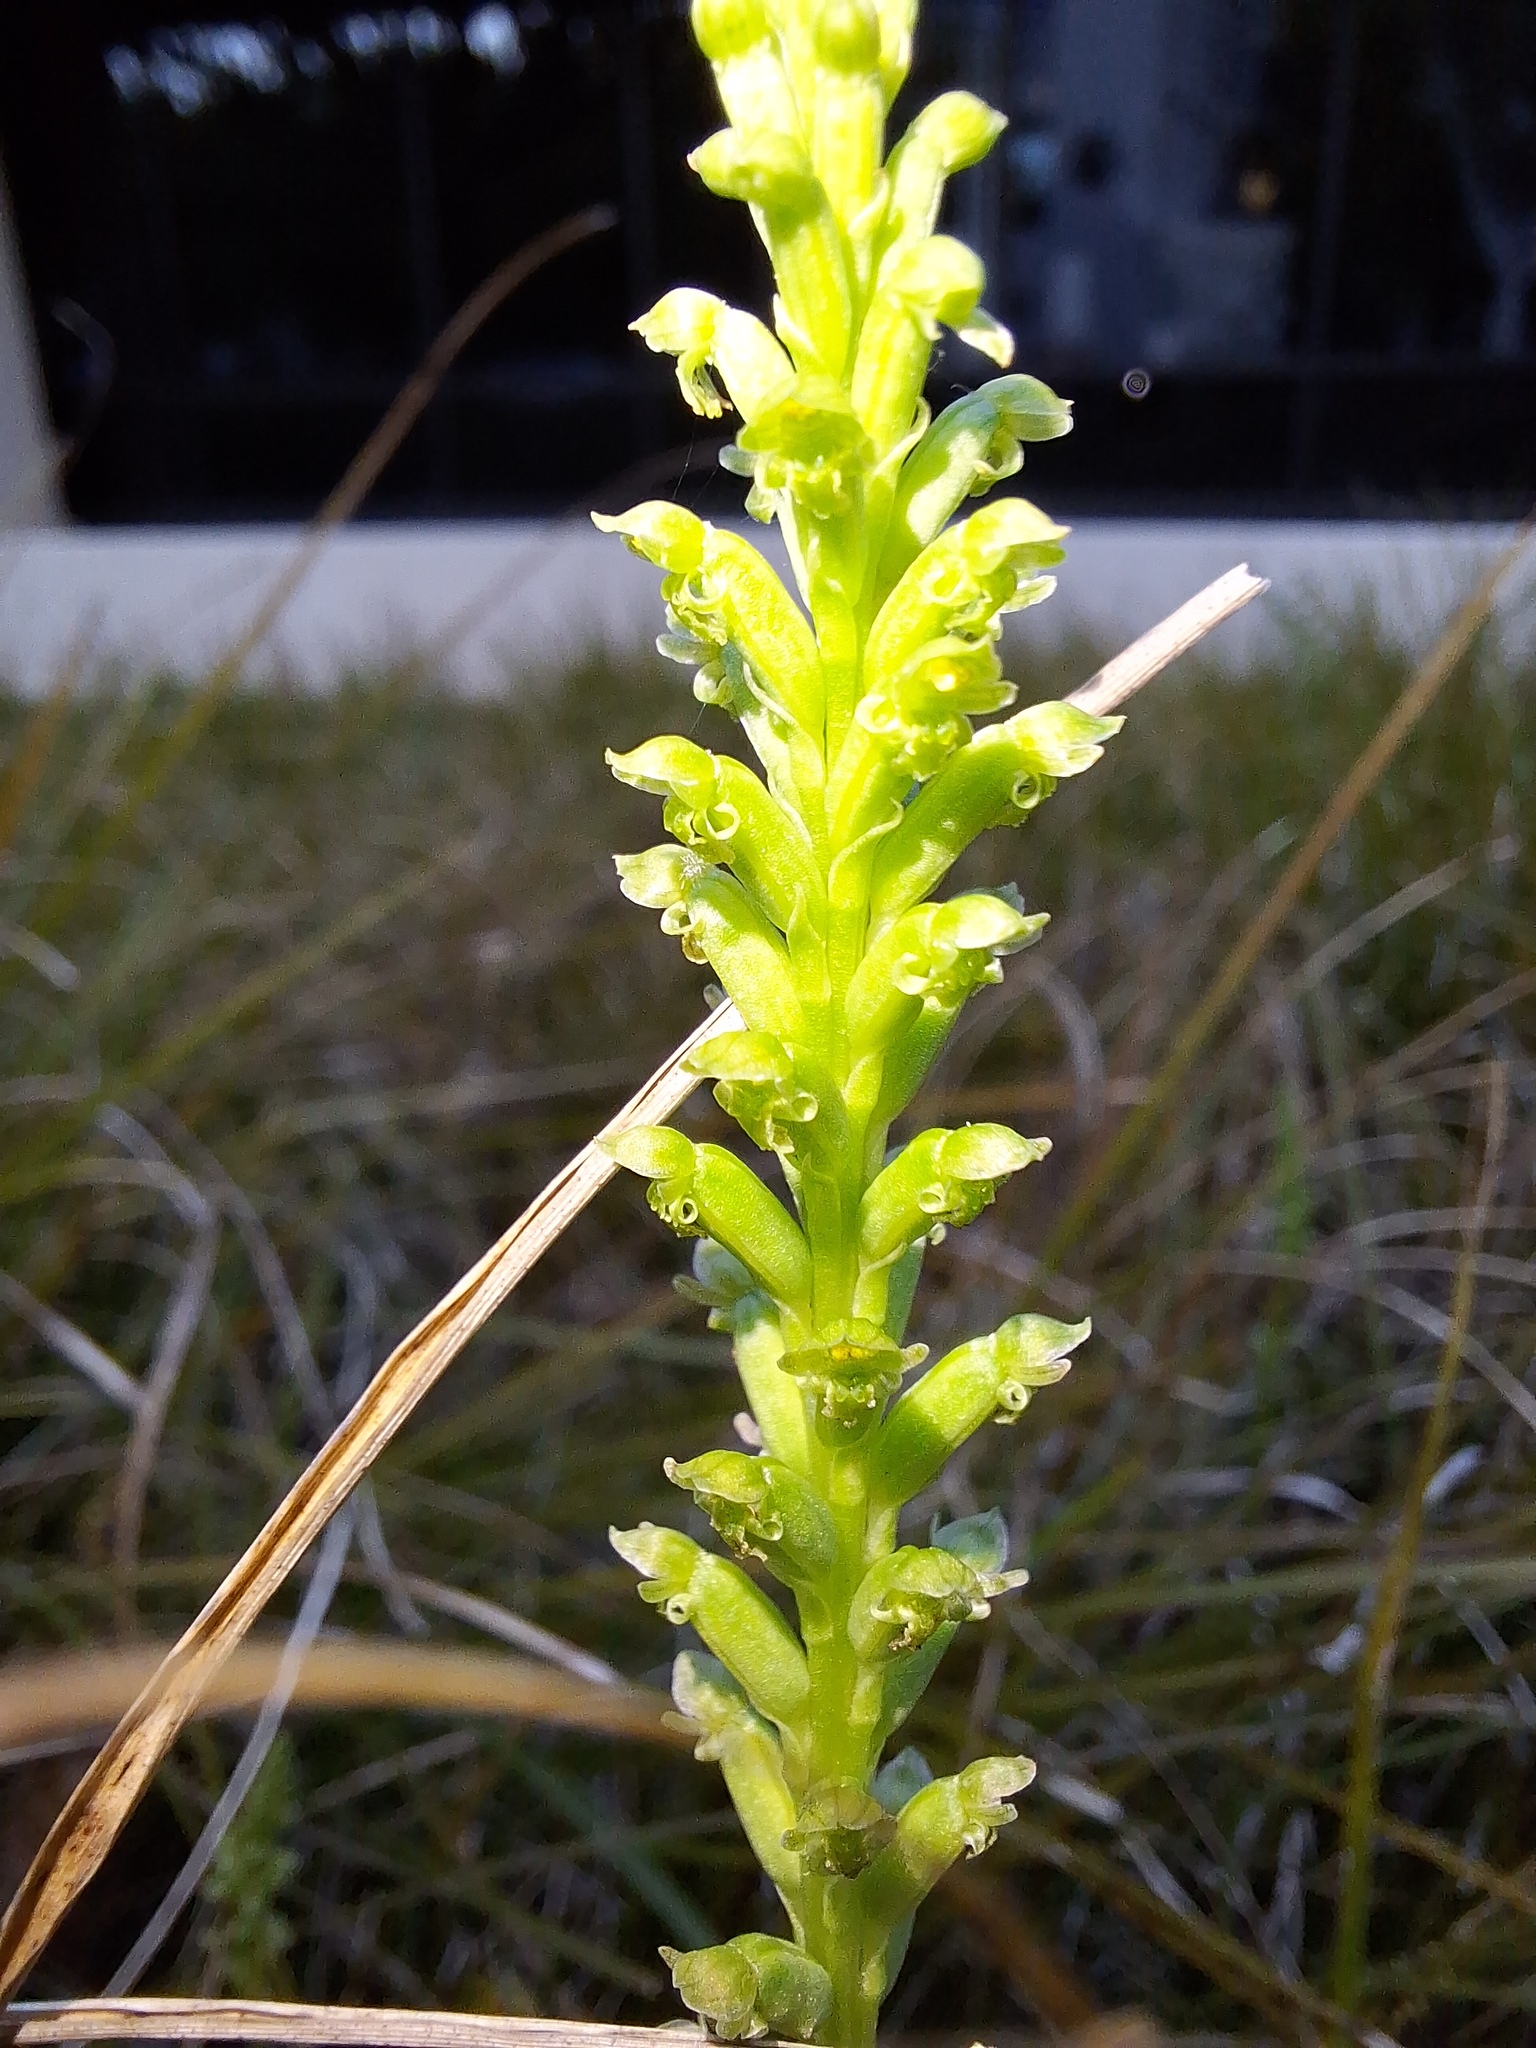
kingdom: Plantae
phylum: Tracheophyta
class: Liliopsida
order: Asparagales
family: Orchidaceae
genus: Microtis
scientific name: Microtis unifolia
